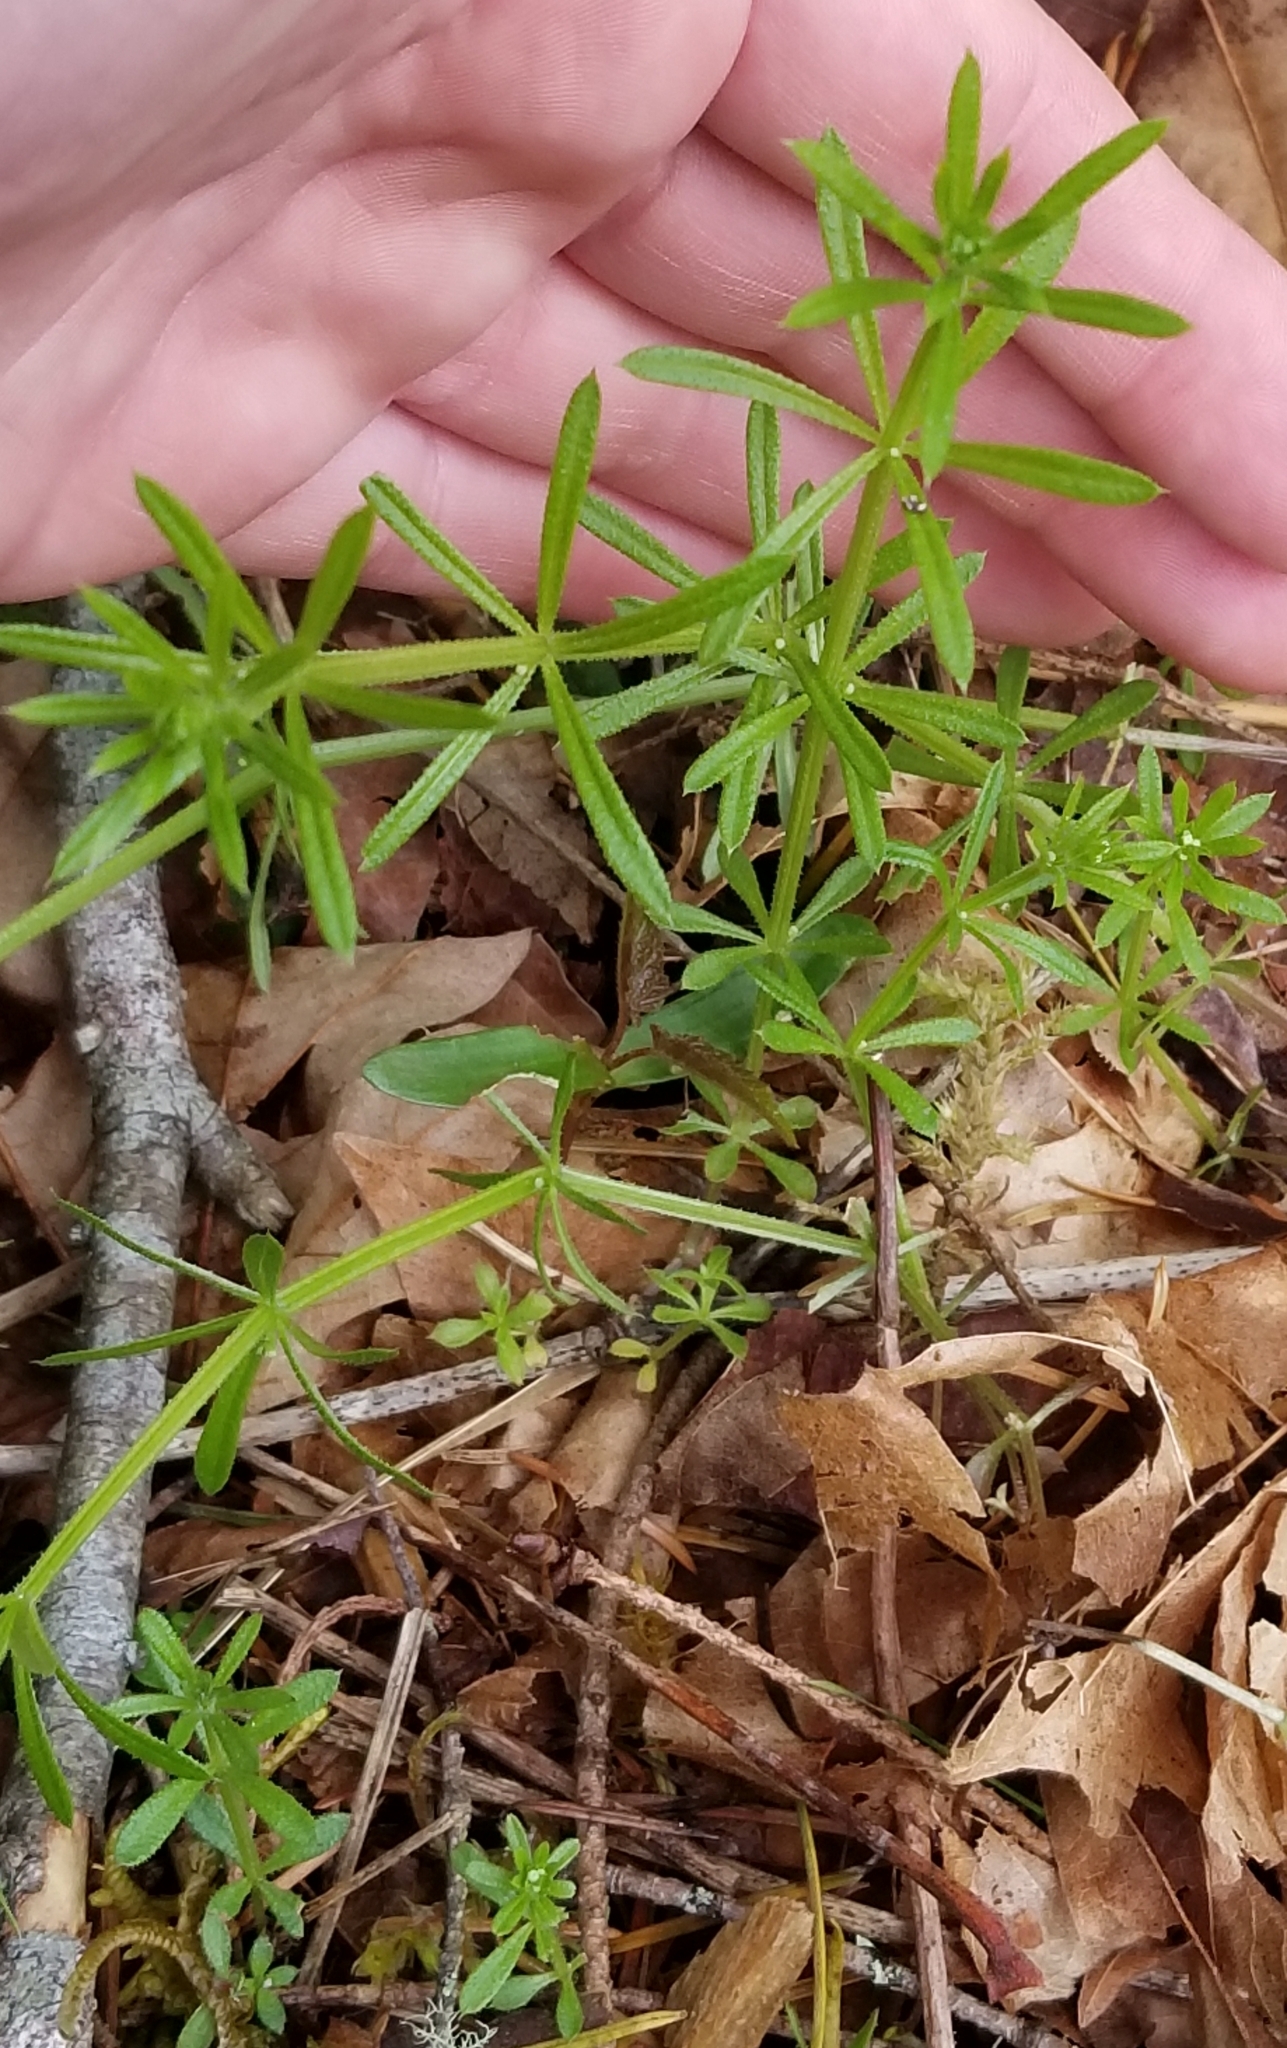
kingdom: Plantae
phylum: Tracheophyta
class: Magnoliopsida
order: Gentianales
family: Rubiaceae
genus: Galium
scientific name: Galium aparine
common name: Cleavers
